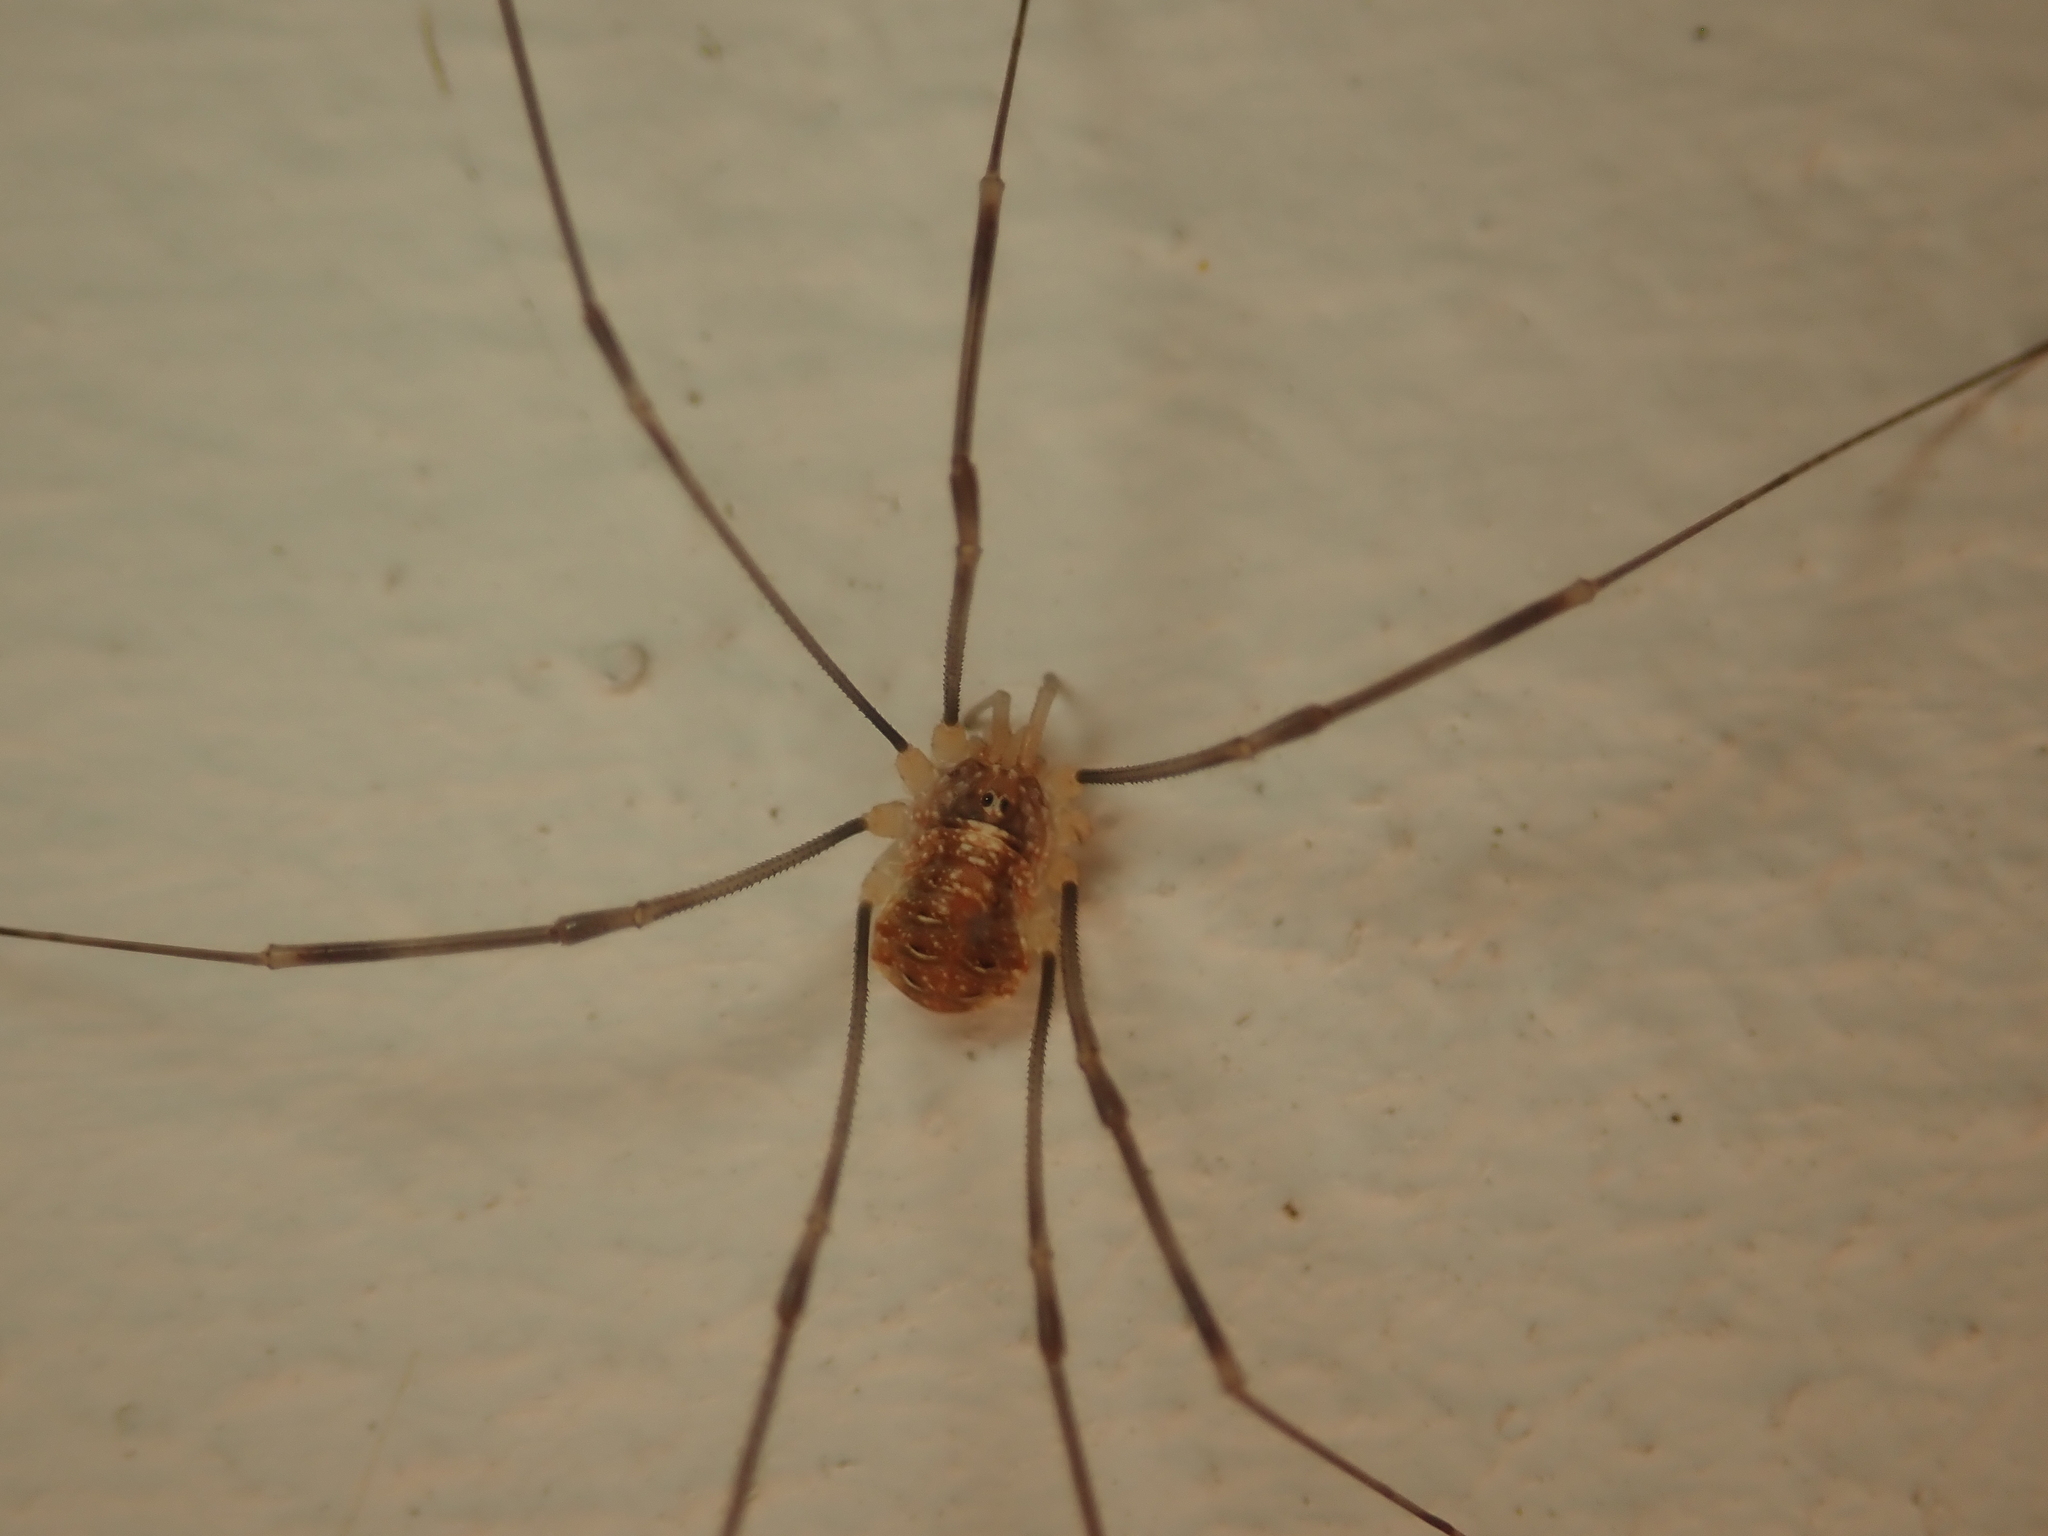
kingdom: Animalia
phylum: Arthropoda
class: Arachnida
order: Opiliones
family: Phalangiidae
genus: Opilio
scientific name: Opilio canestrinii
